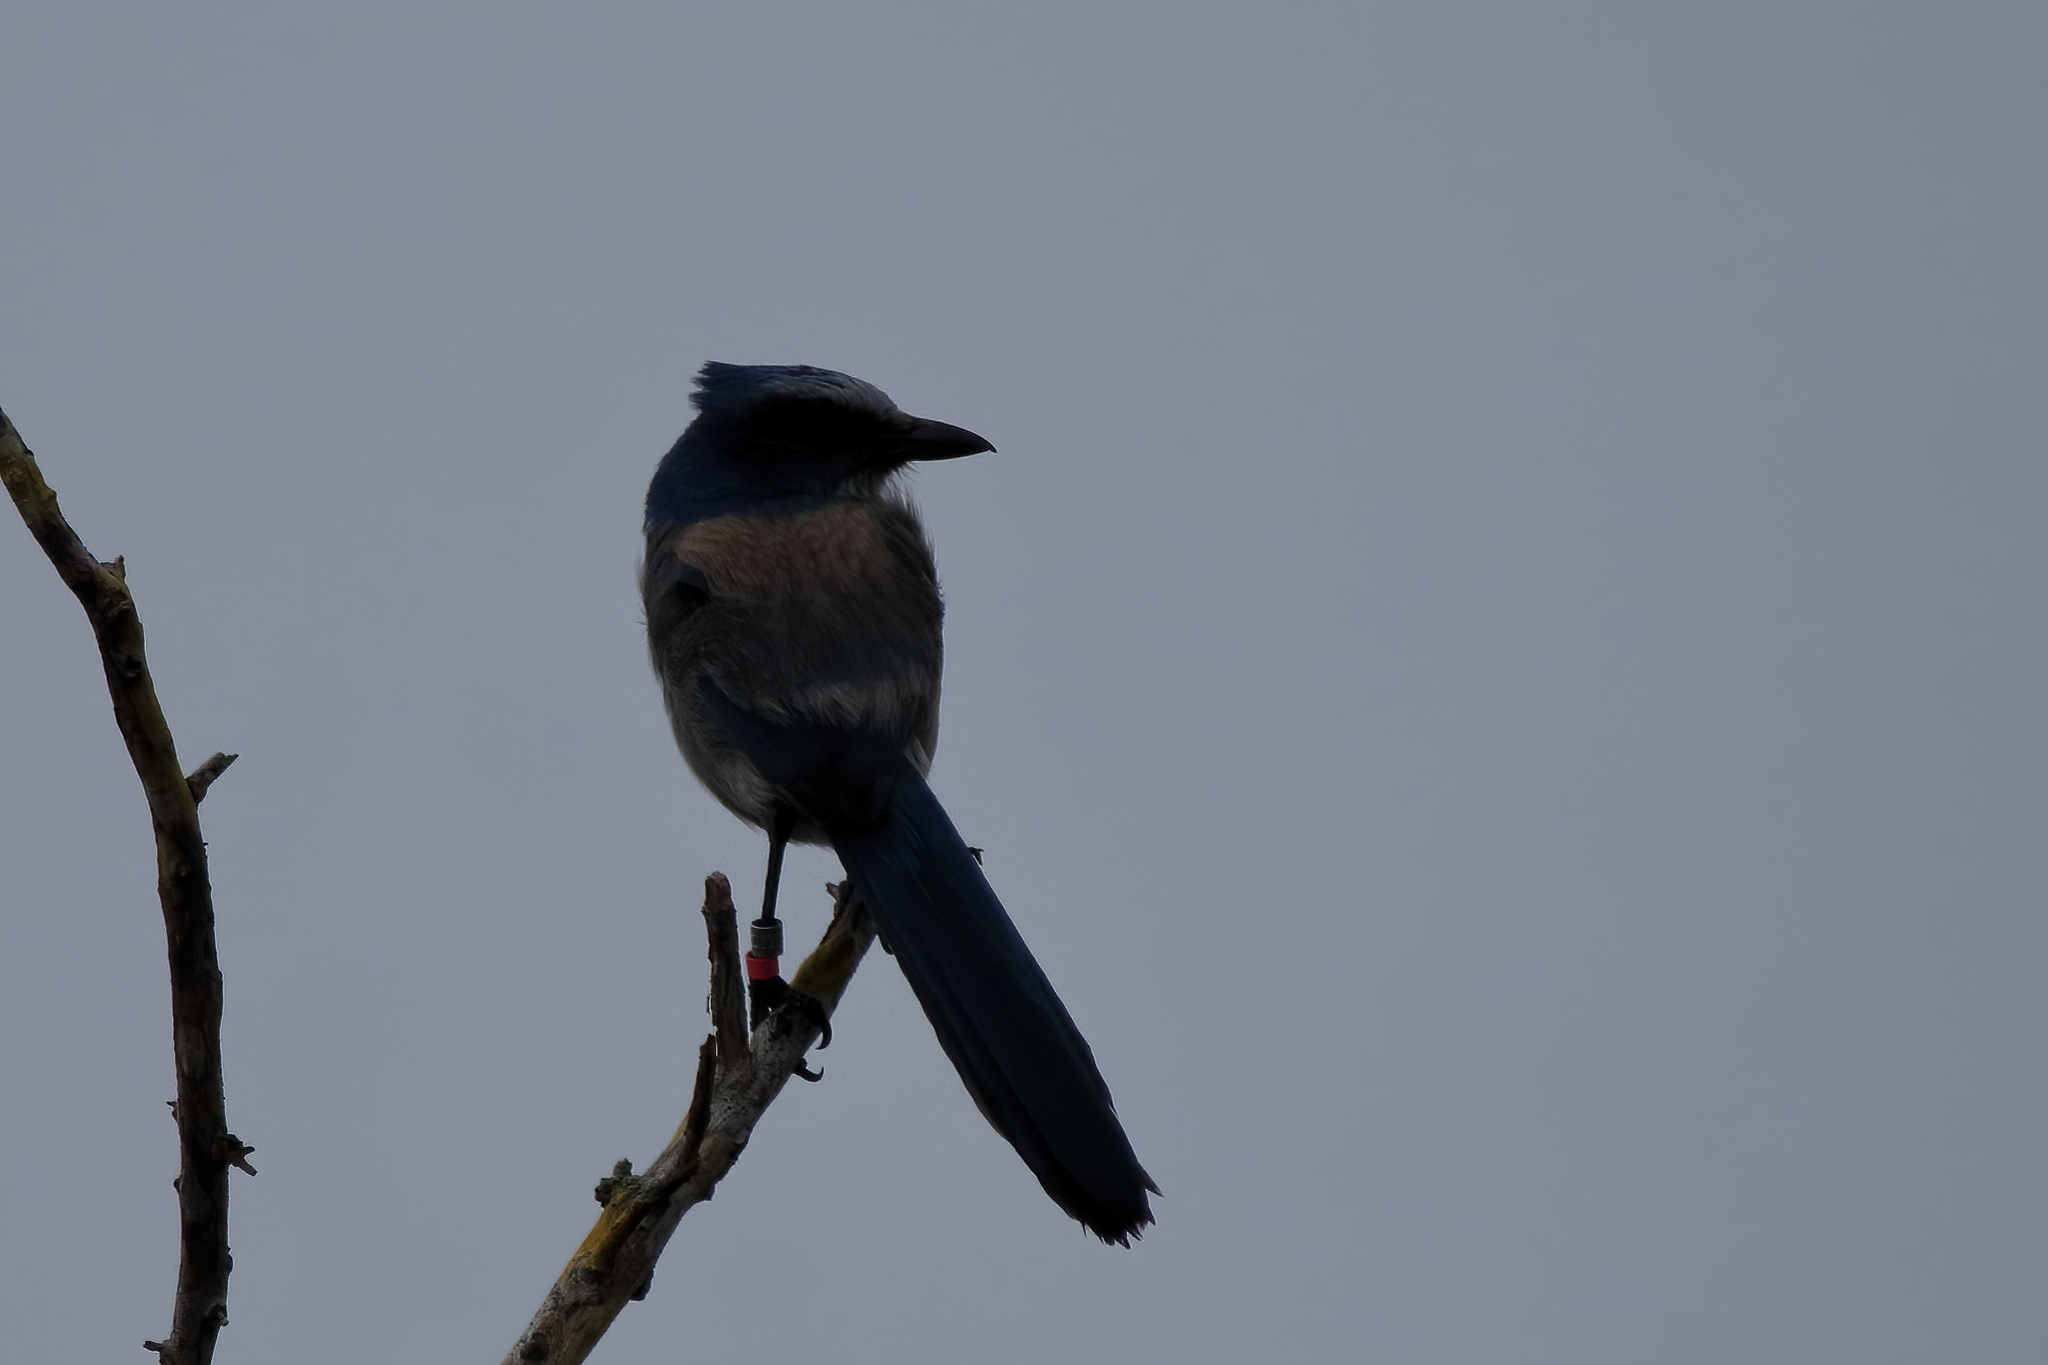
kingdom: Animalia
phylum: Chordata
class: Aves
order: Passeriformes
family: Corvidae
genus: Aphelocoma
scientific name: Aphelocoma coerulescens
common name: Florida scrub jay
